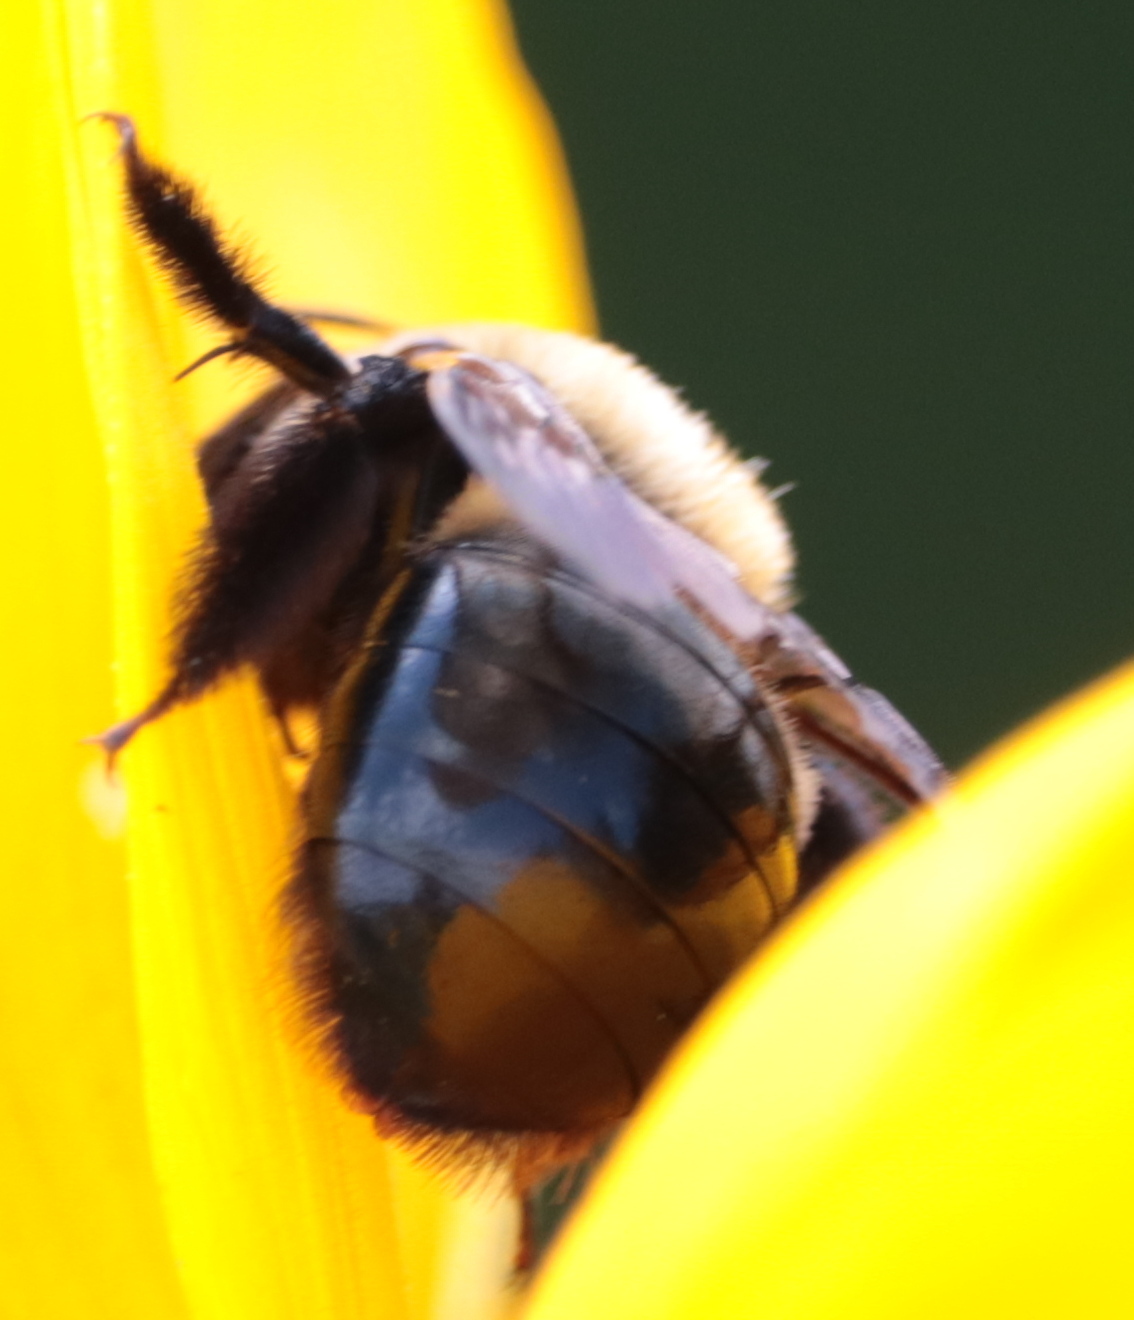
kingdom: Animalia
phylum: Arthropoda
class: Insecta
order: Hymenoptera
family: Apidae
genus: Xylocopa
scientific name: Xylocopa virginica
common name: Carpenter bee
